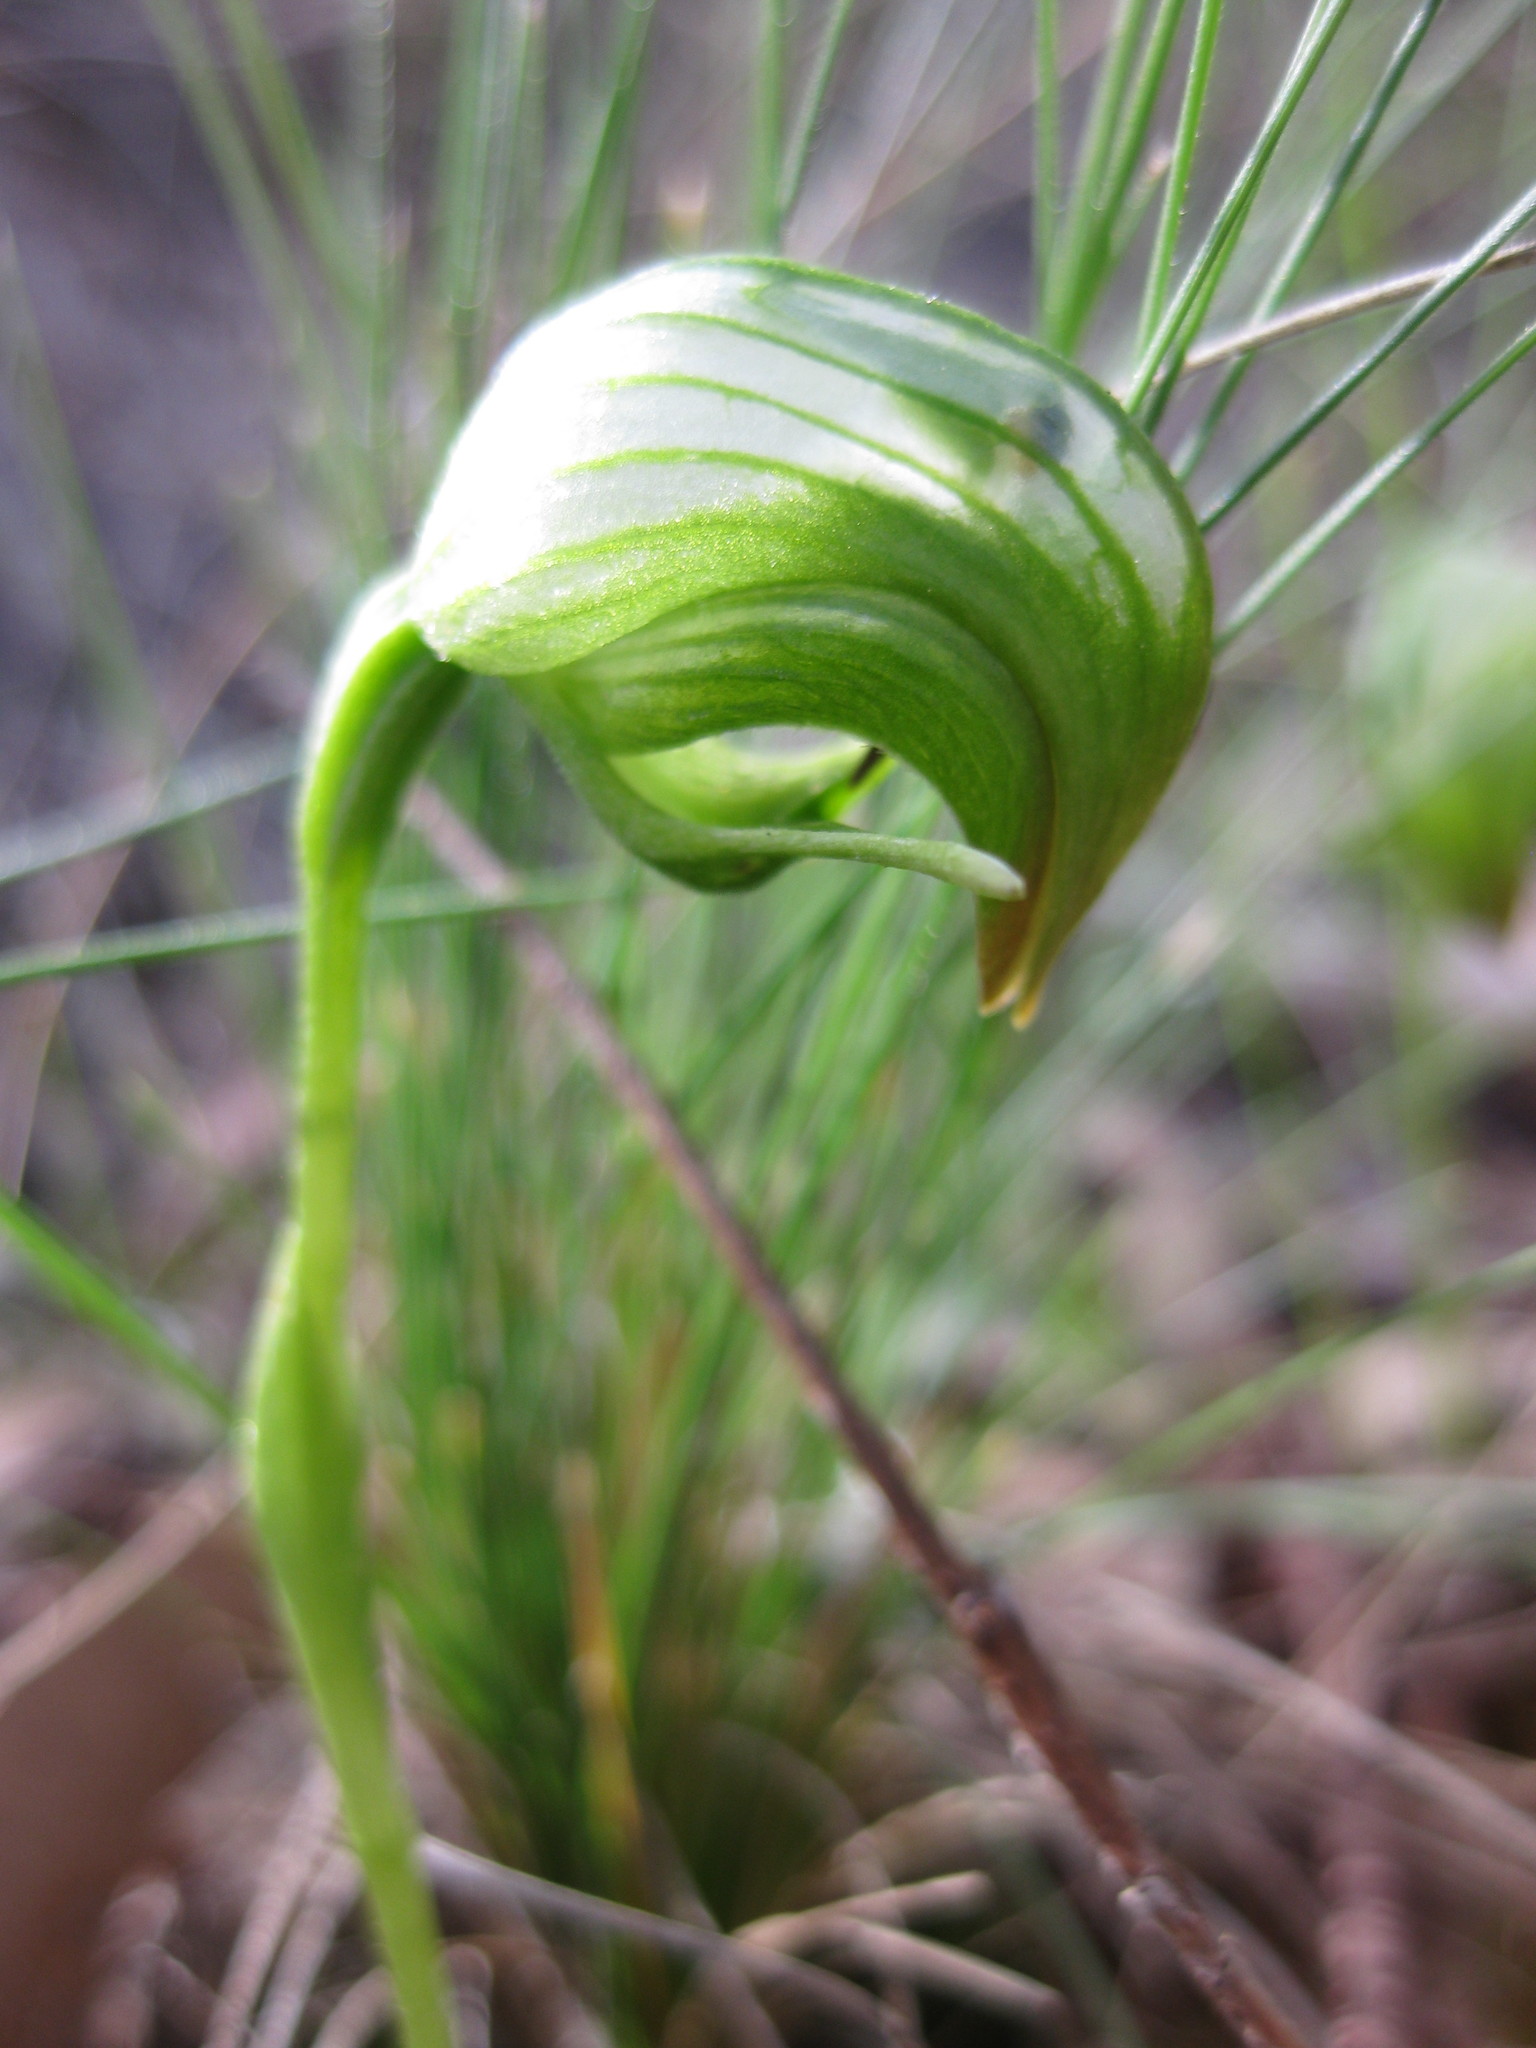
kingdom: Plantae
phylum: Tracheophyta
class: Liliopsida
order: Asparagales
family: Orchidaceae
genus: Pterostylis
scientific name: Pterostylis nutans
